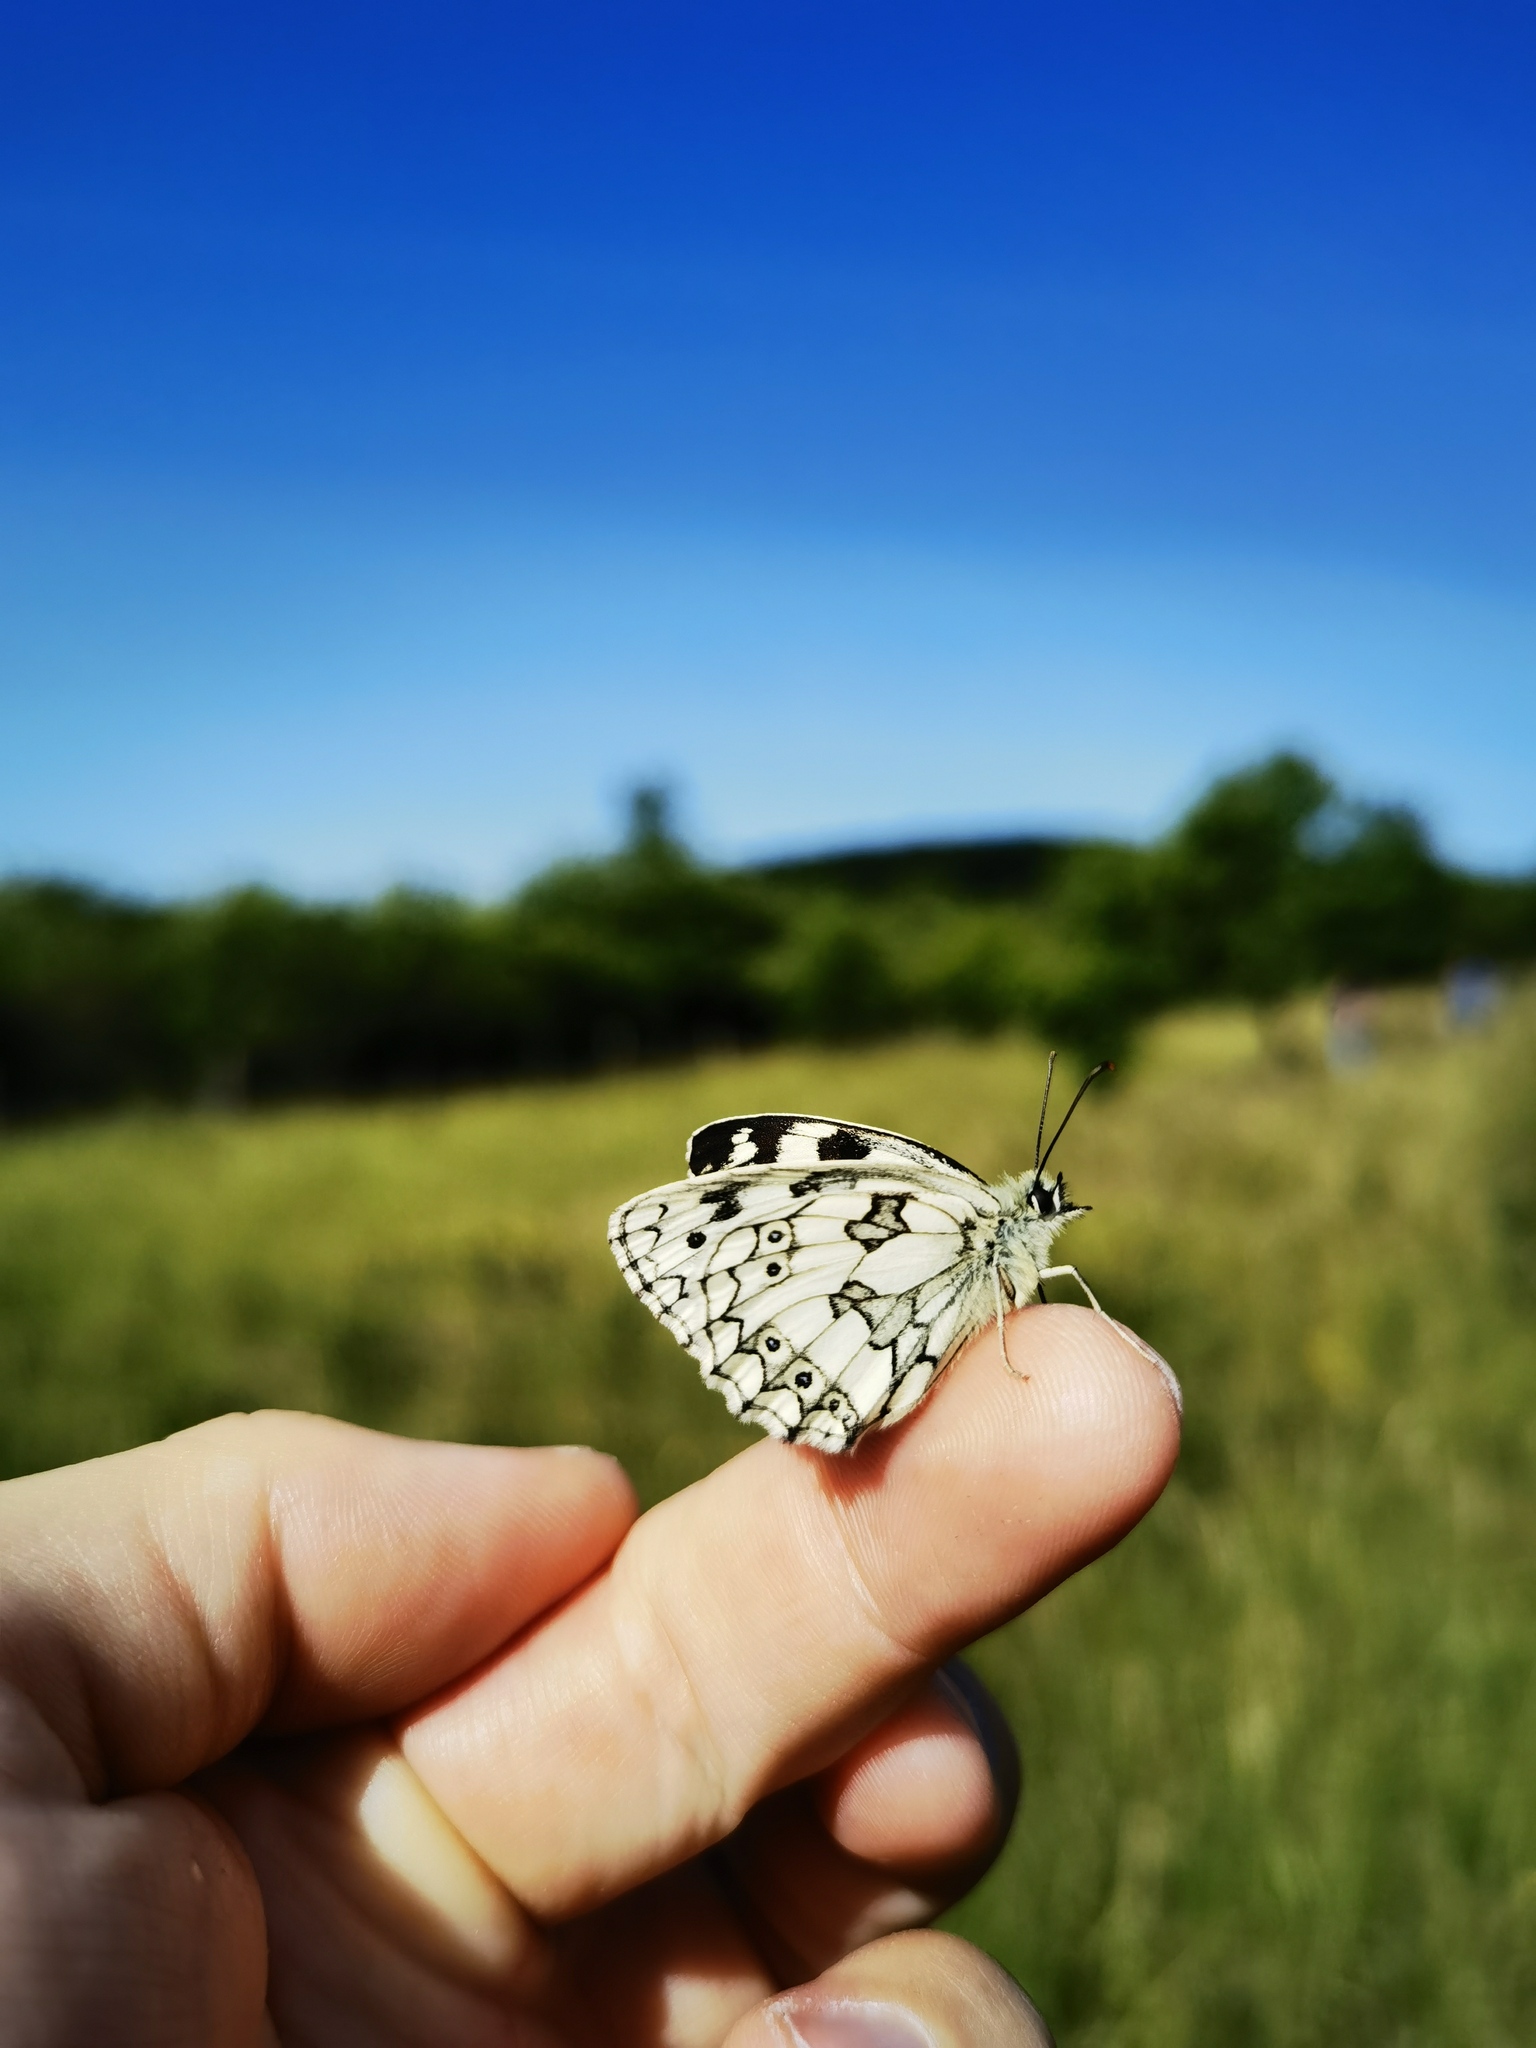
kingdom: Animalia
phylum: Arthropoda
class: Insecta
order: Lepidoptera
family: Nymphalidae
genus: Melanargia
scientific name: Melanargia galathea
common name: Marbled white
